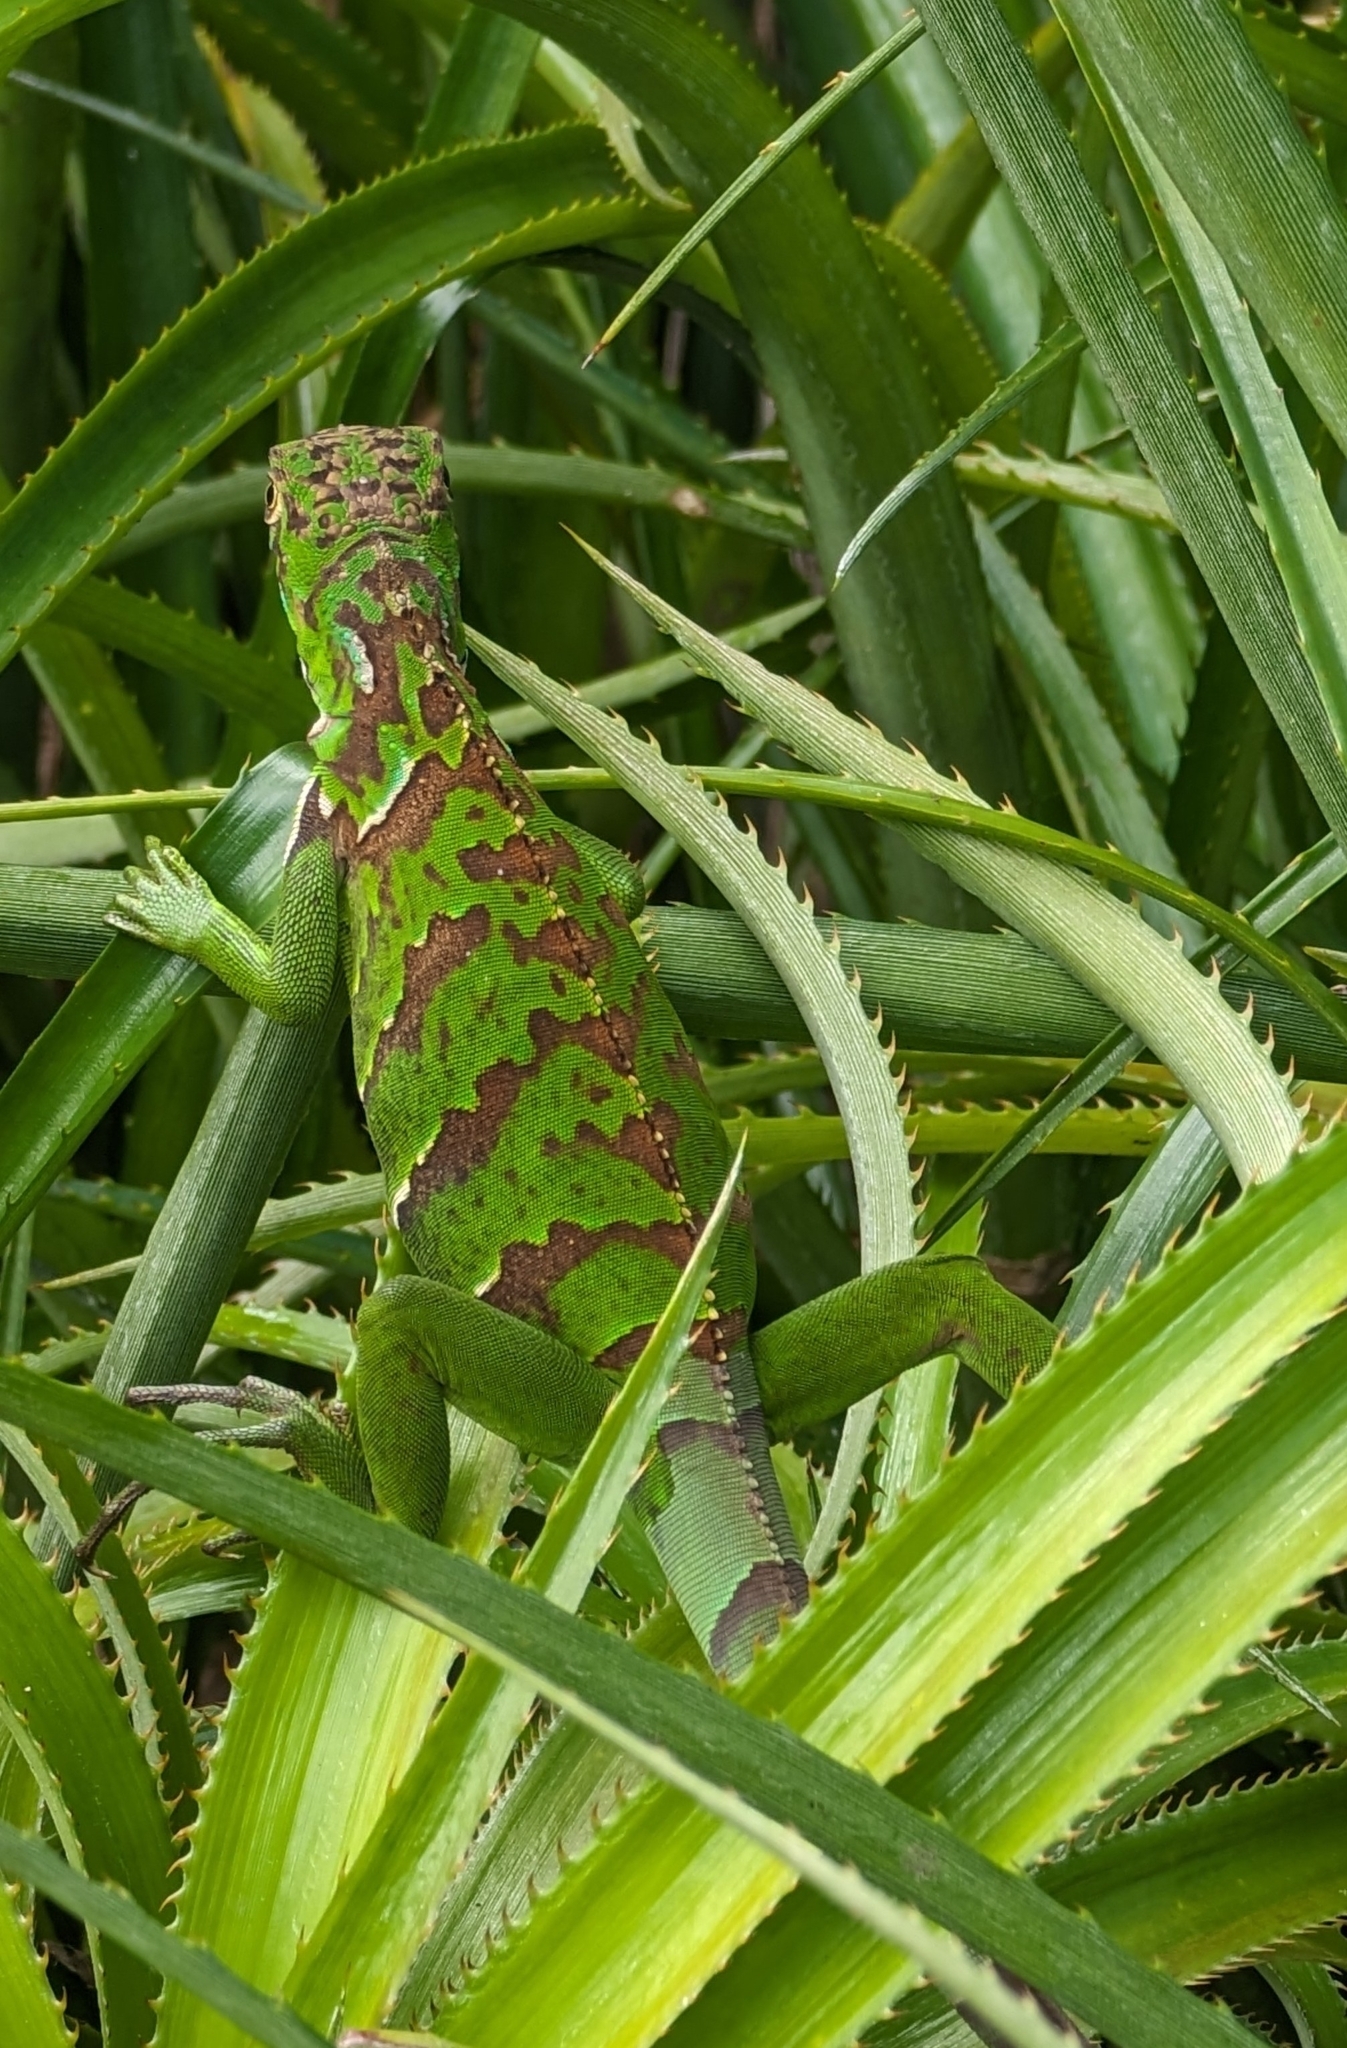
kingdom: Animalia
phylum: Chordata
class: Squamata
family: Iguanidae
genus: Iguana
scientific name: Iguana iguana
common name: Green iguana
